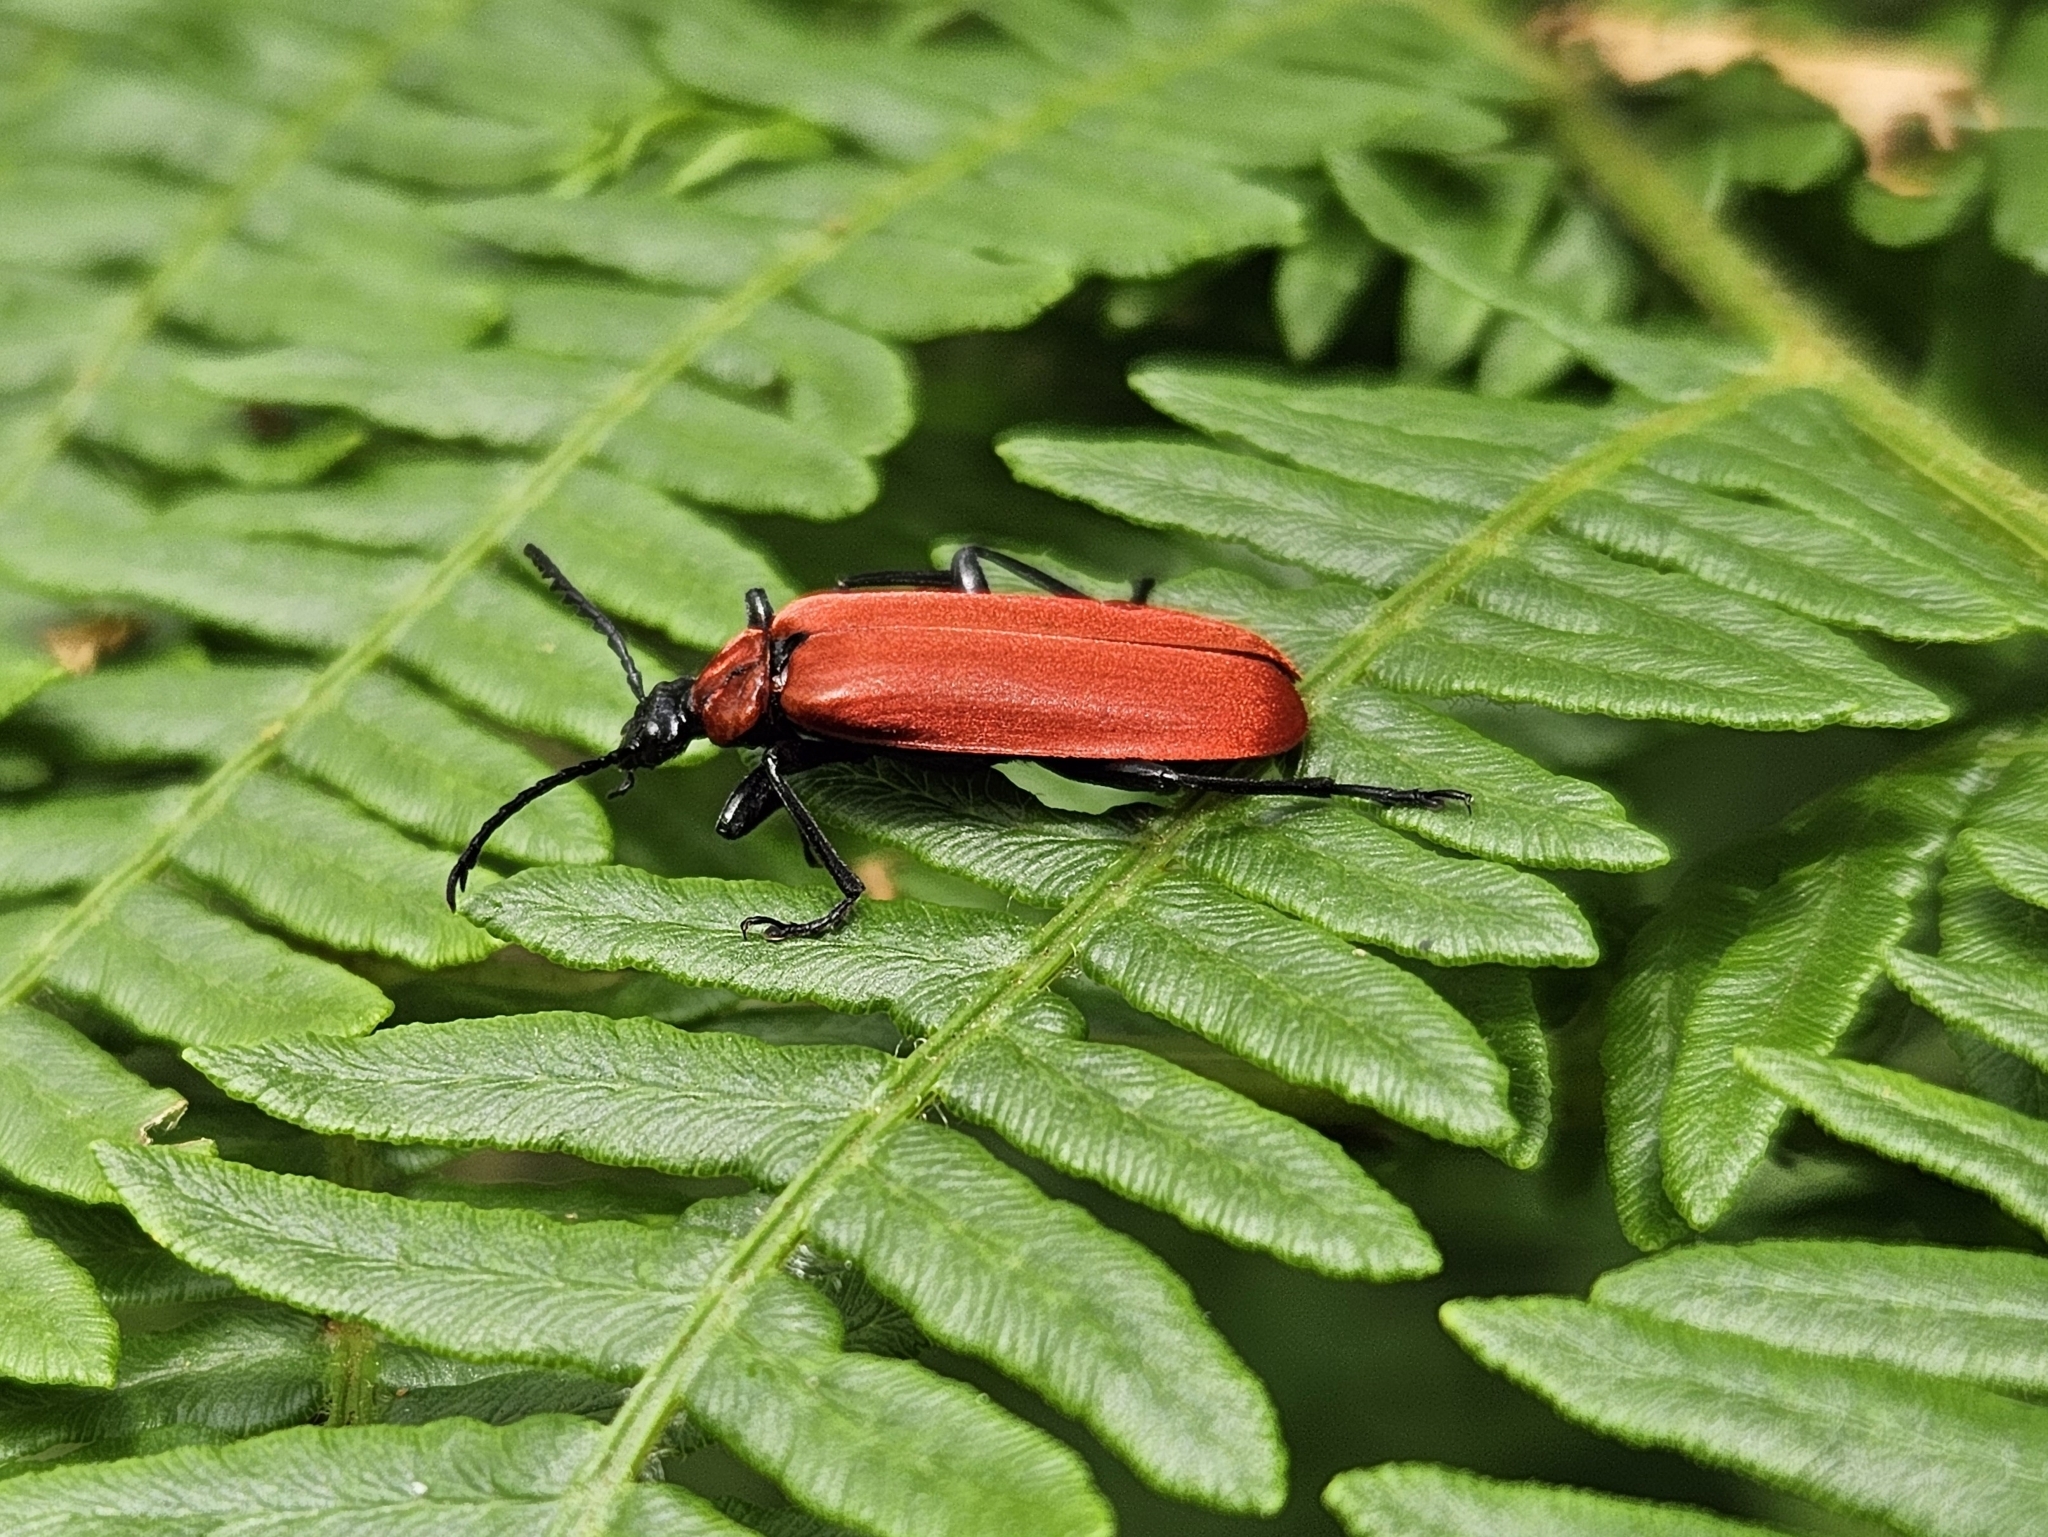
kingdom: Animalia
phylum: Arthropoda
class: Insecta
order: Coleoptera
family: Pyrochroidae
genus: Pyrochroa
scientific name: Pyrochroa coccinea
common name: Black-headed cardinal beetle
